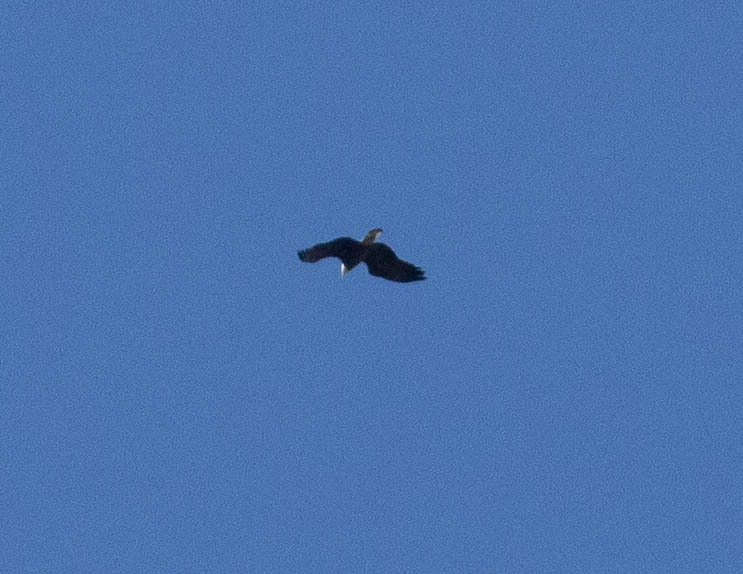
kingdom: Animalia
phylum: Chordata
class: Aves
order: Accipitriformes
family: Accipitridae
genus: Haliaeetus
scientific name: Haliaeetus leucocephalus
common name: Bald eagle
